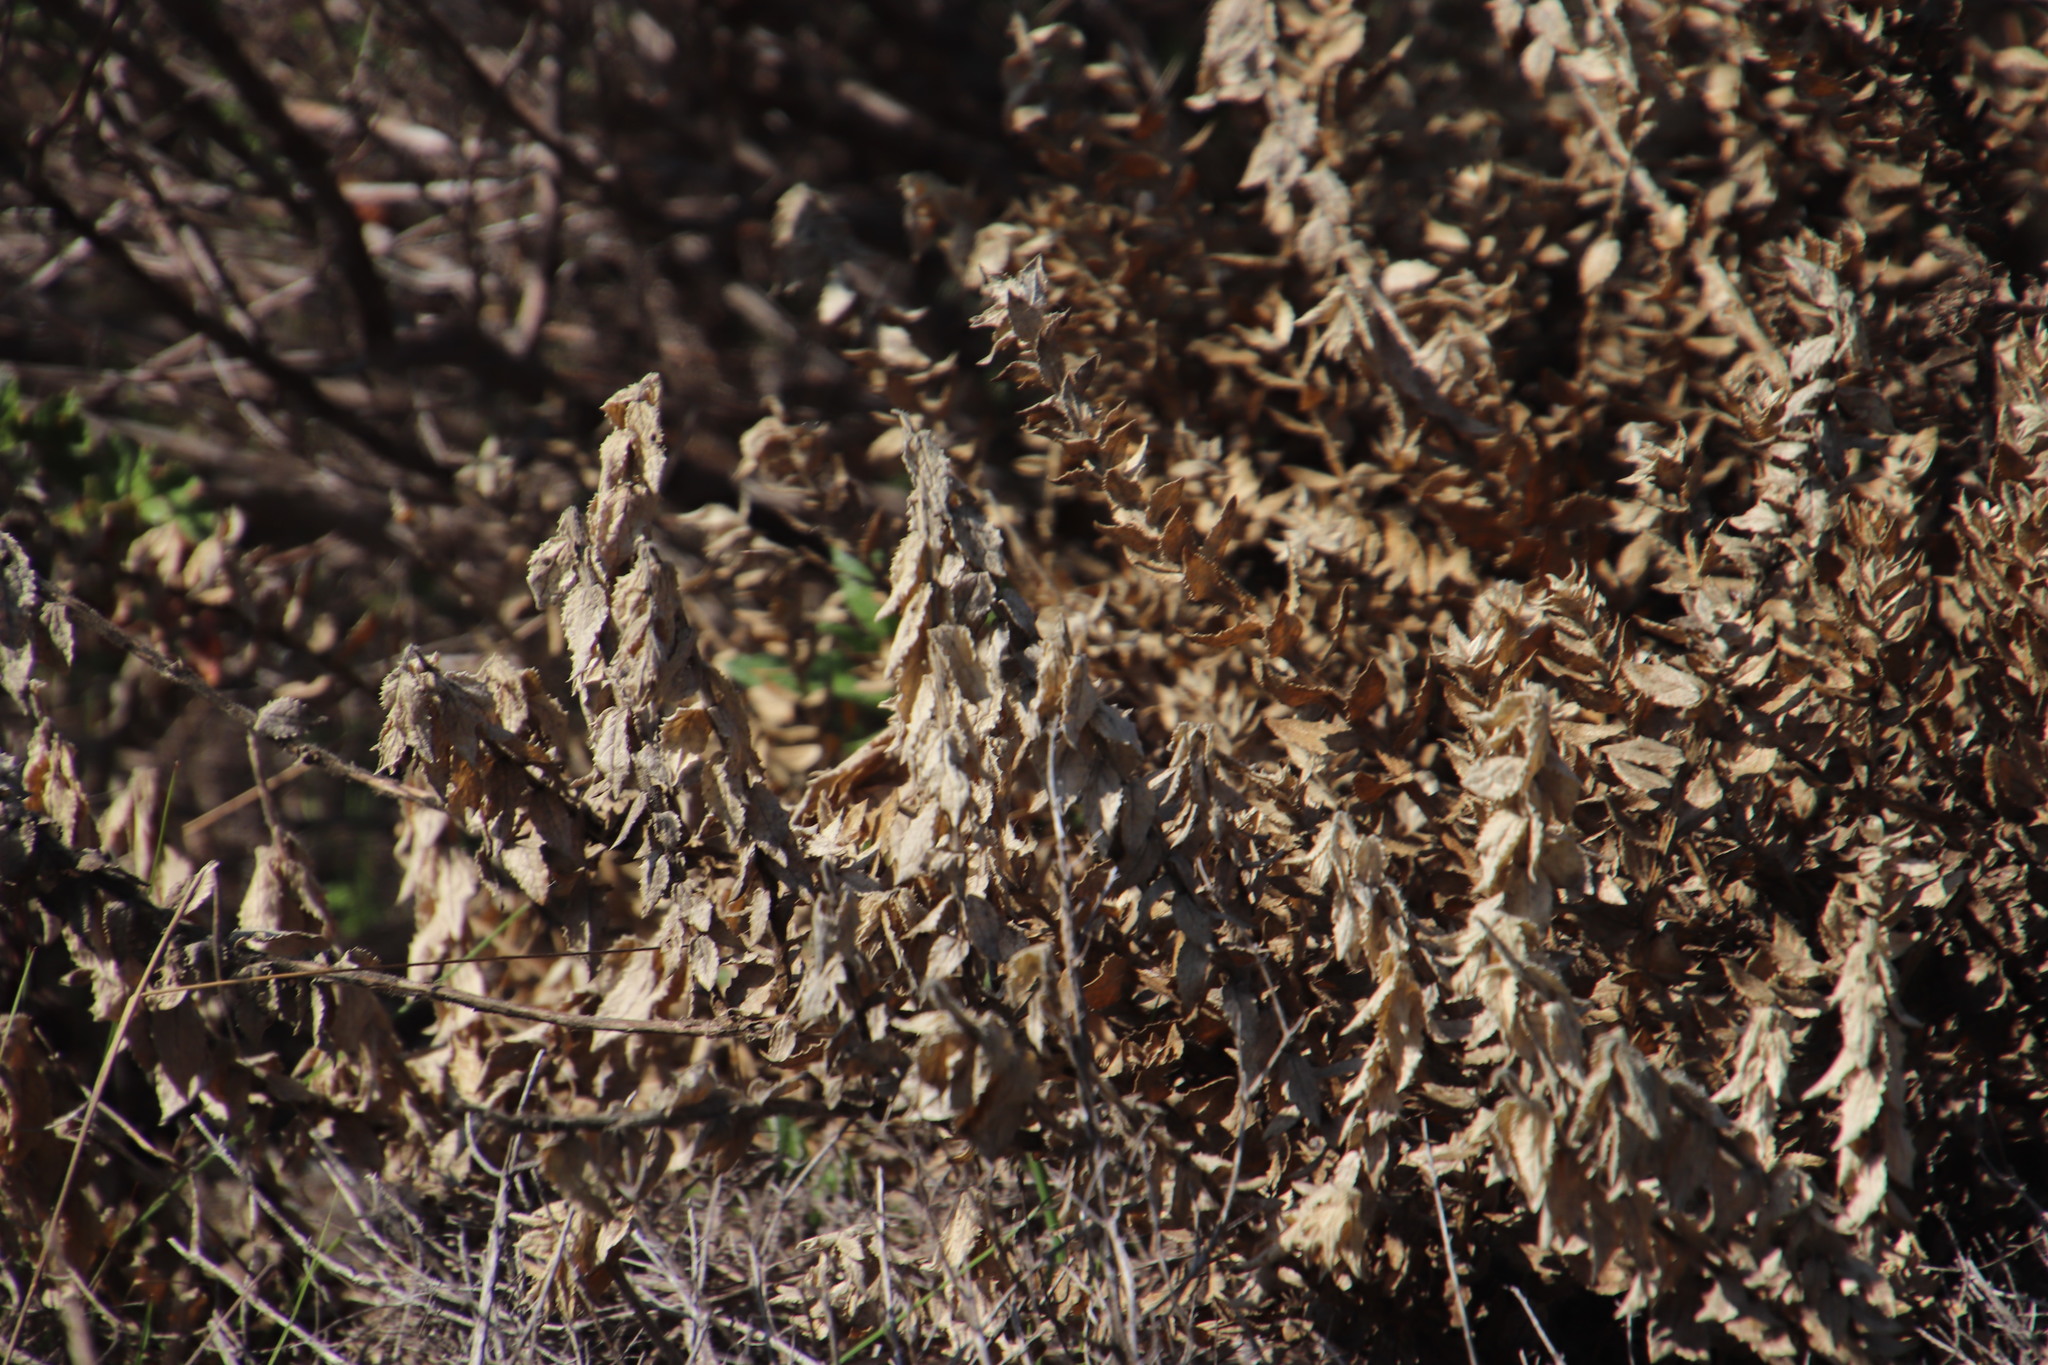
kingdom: Plantae
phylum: Tracheophyta
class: Magnoliopsida
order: Lamiales
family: Scrophulariaceae
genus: Oftia
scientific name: Oftia africana
